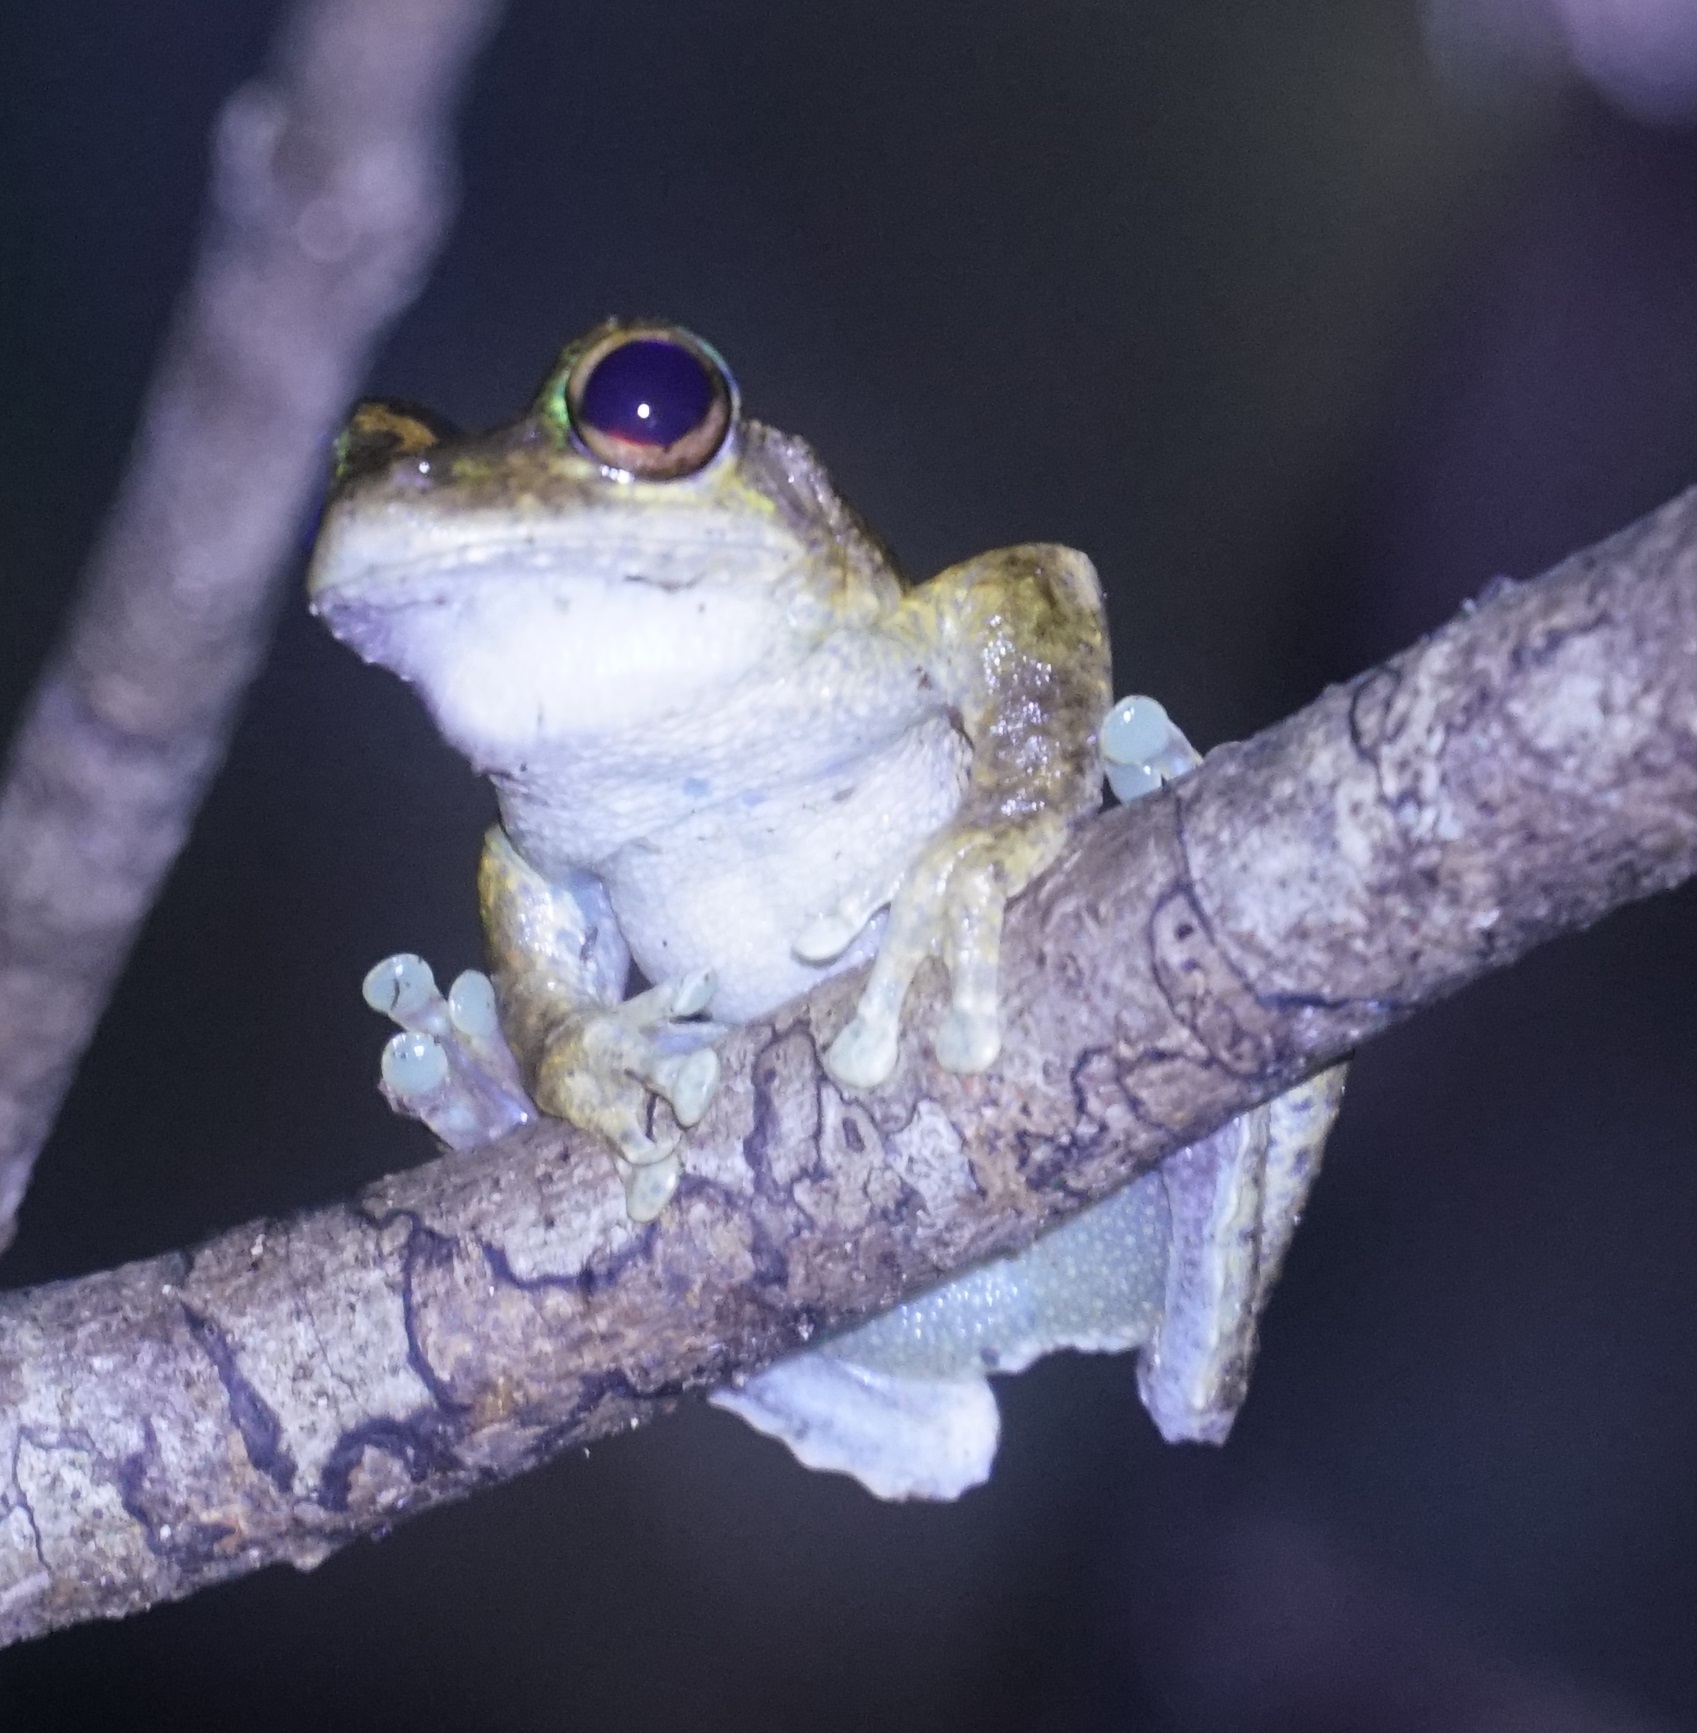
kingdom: Animalia
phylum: Chordata
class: Amphibia
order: Anura
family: Pelodryadidae
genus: Ranoidea
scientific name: Ranoidea serrata
